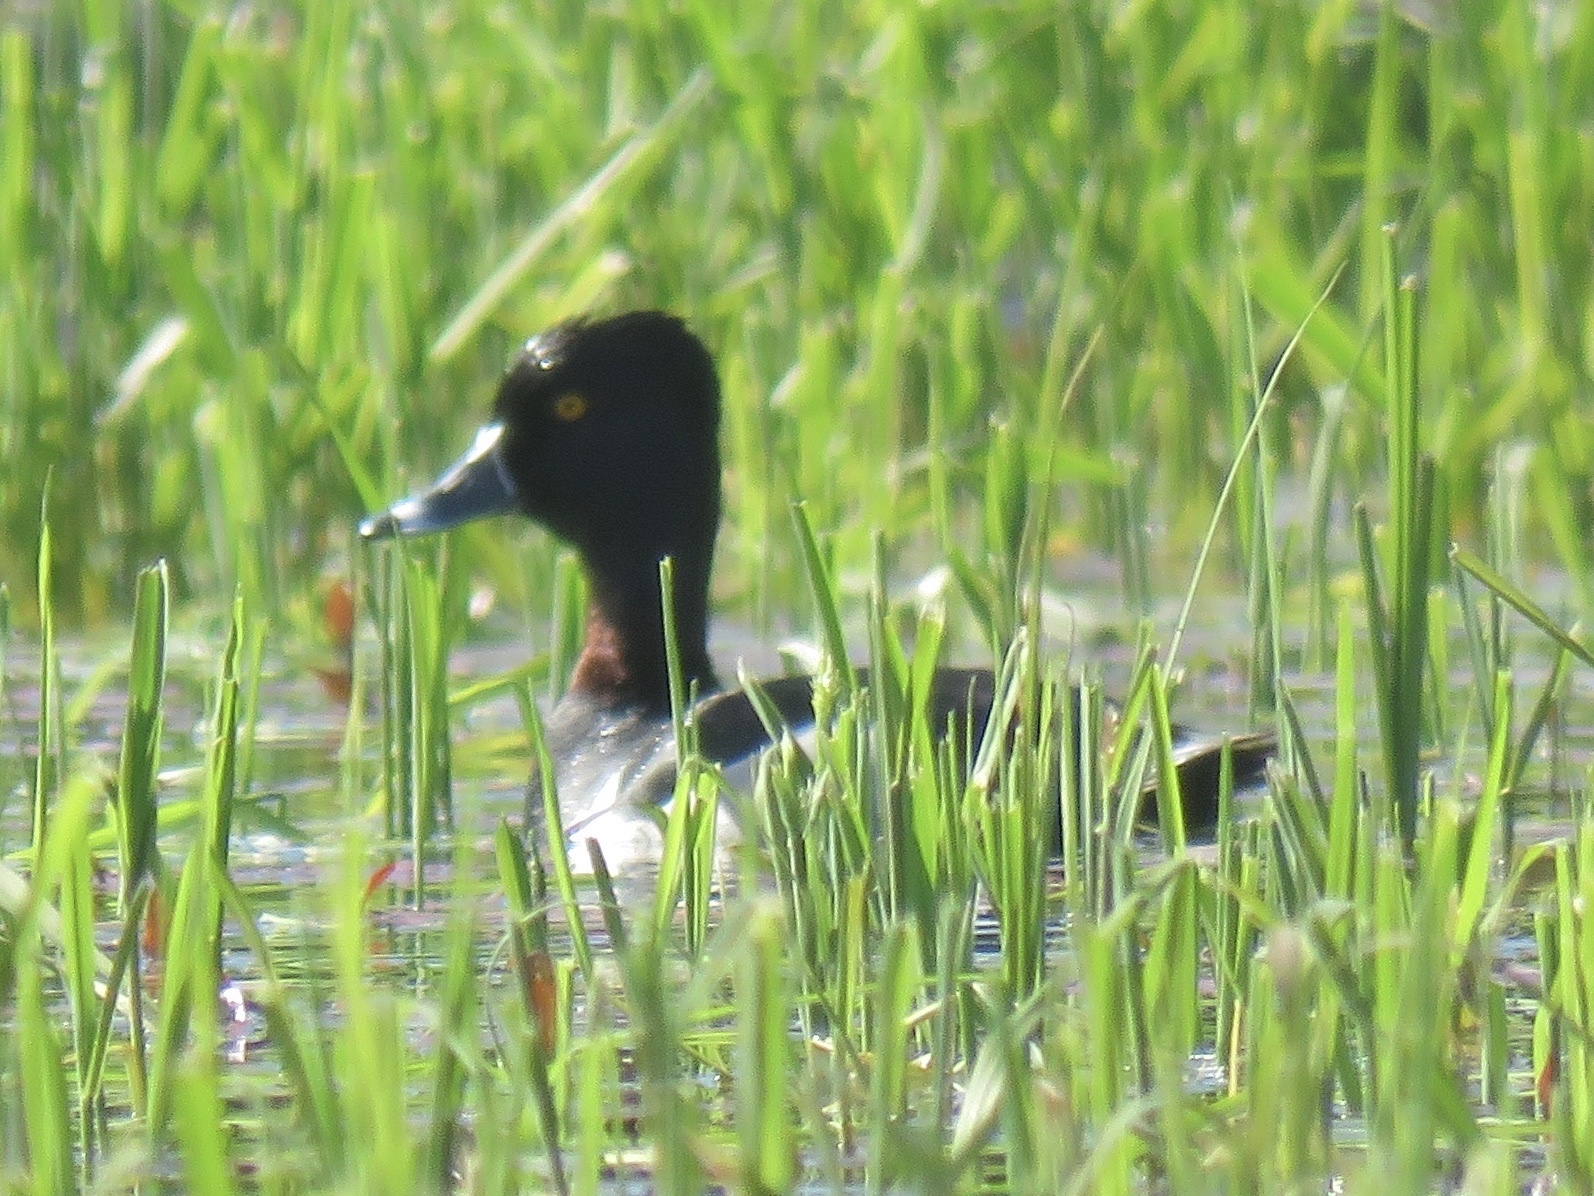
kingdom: Animalia
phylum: Chordata
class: Aves
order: Anseriformes
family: Anatidae
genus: Aythya
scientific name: Aythya collaris
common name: Ring-necked duck
